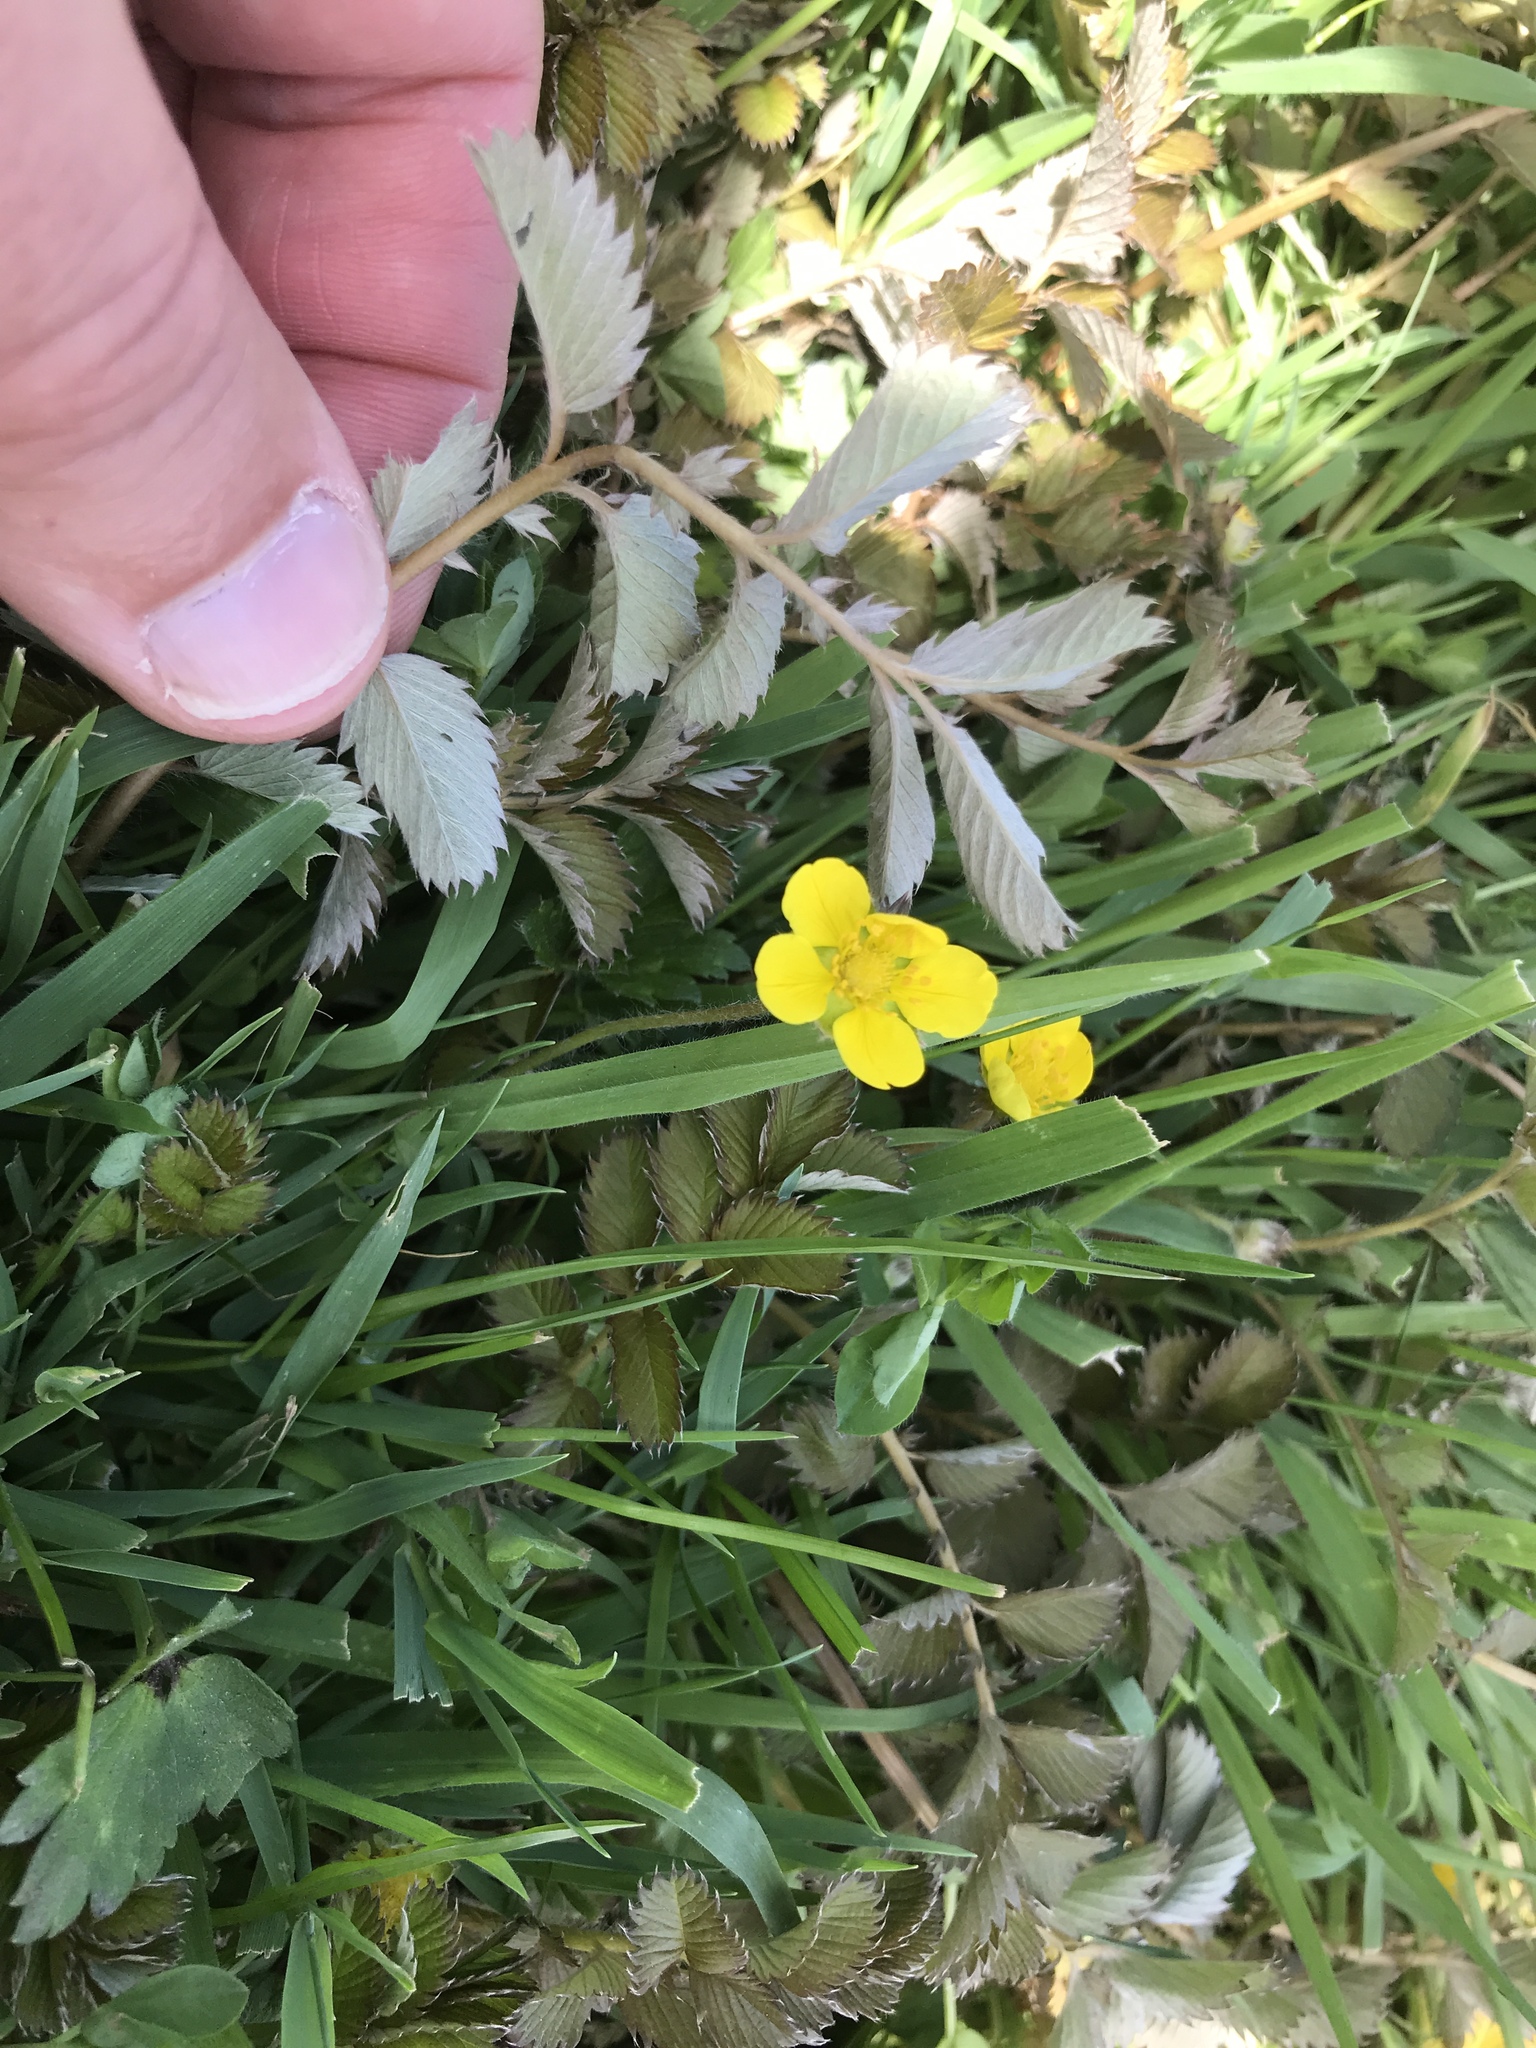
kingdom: Plantae
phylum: Tracheophyta
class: Magnoliopsida
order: Rosales
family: Rosaceae
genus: Argentina
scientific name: Argentina anserinoides
